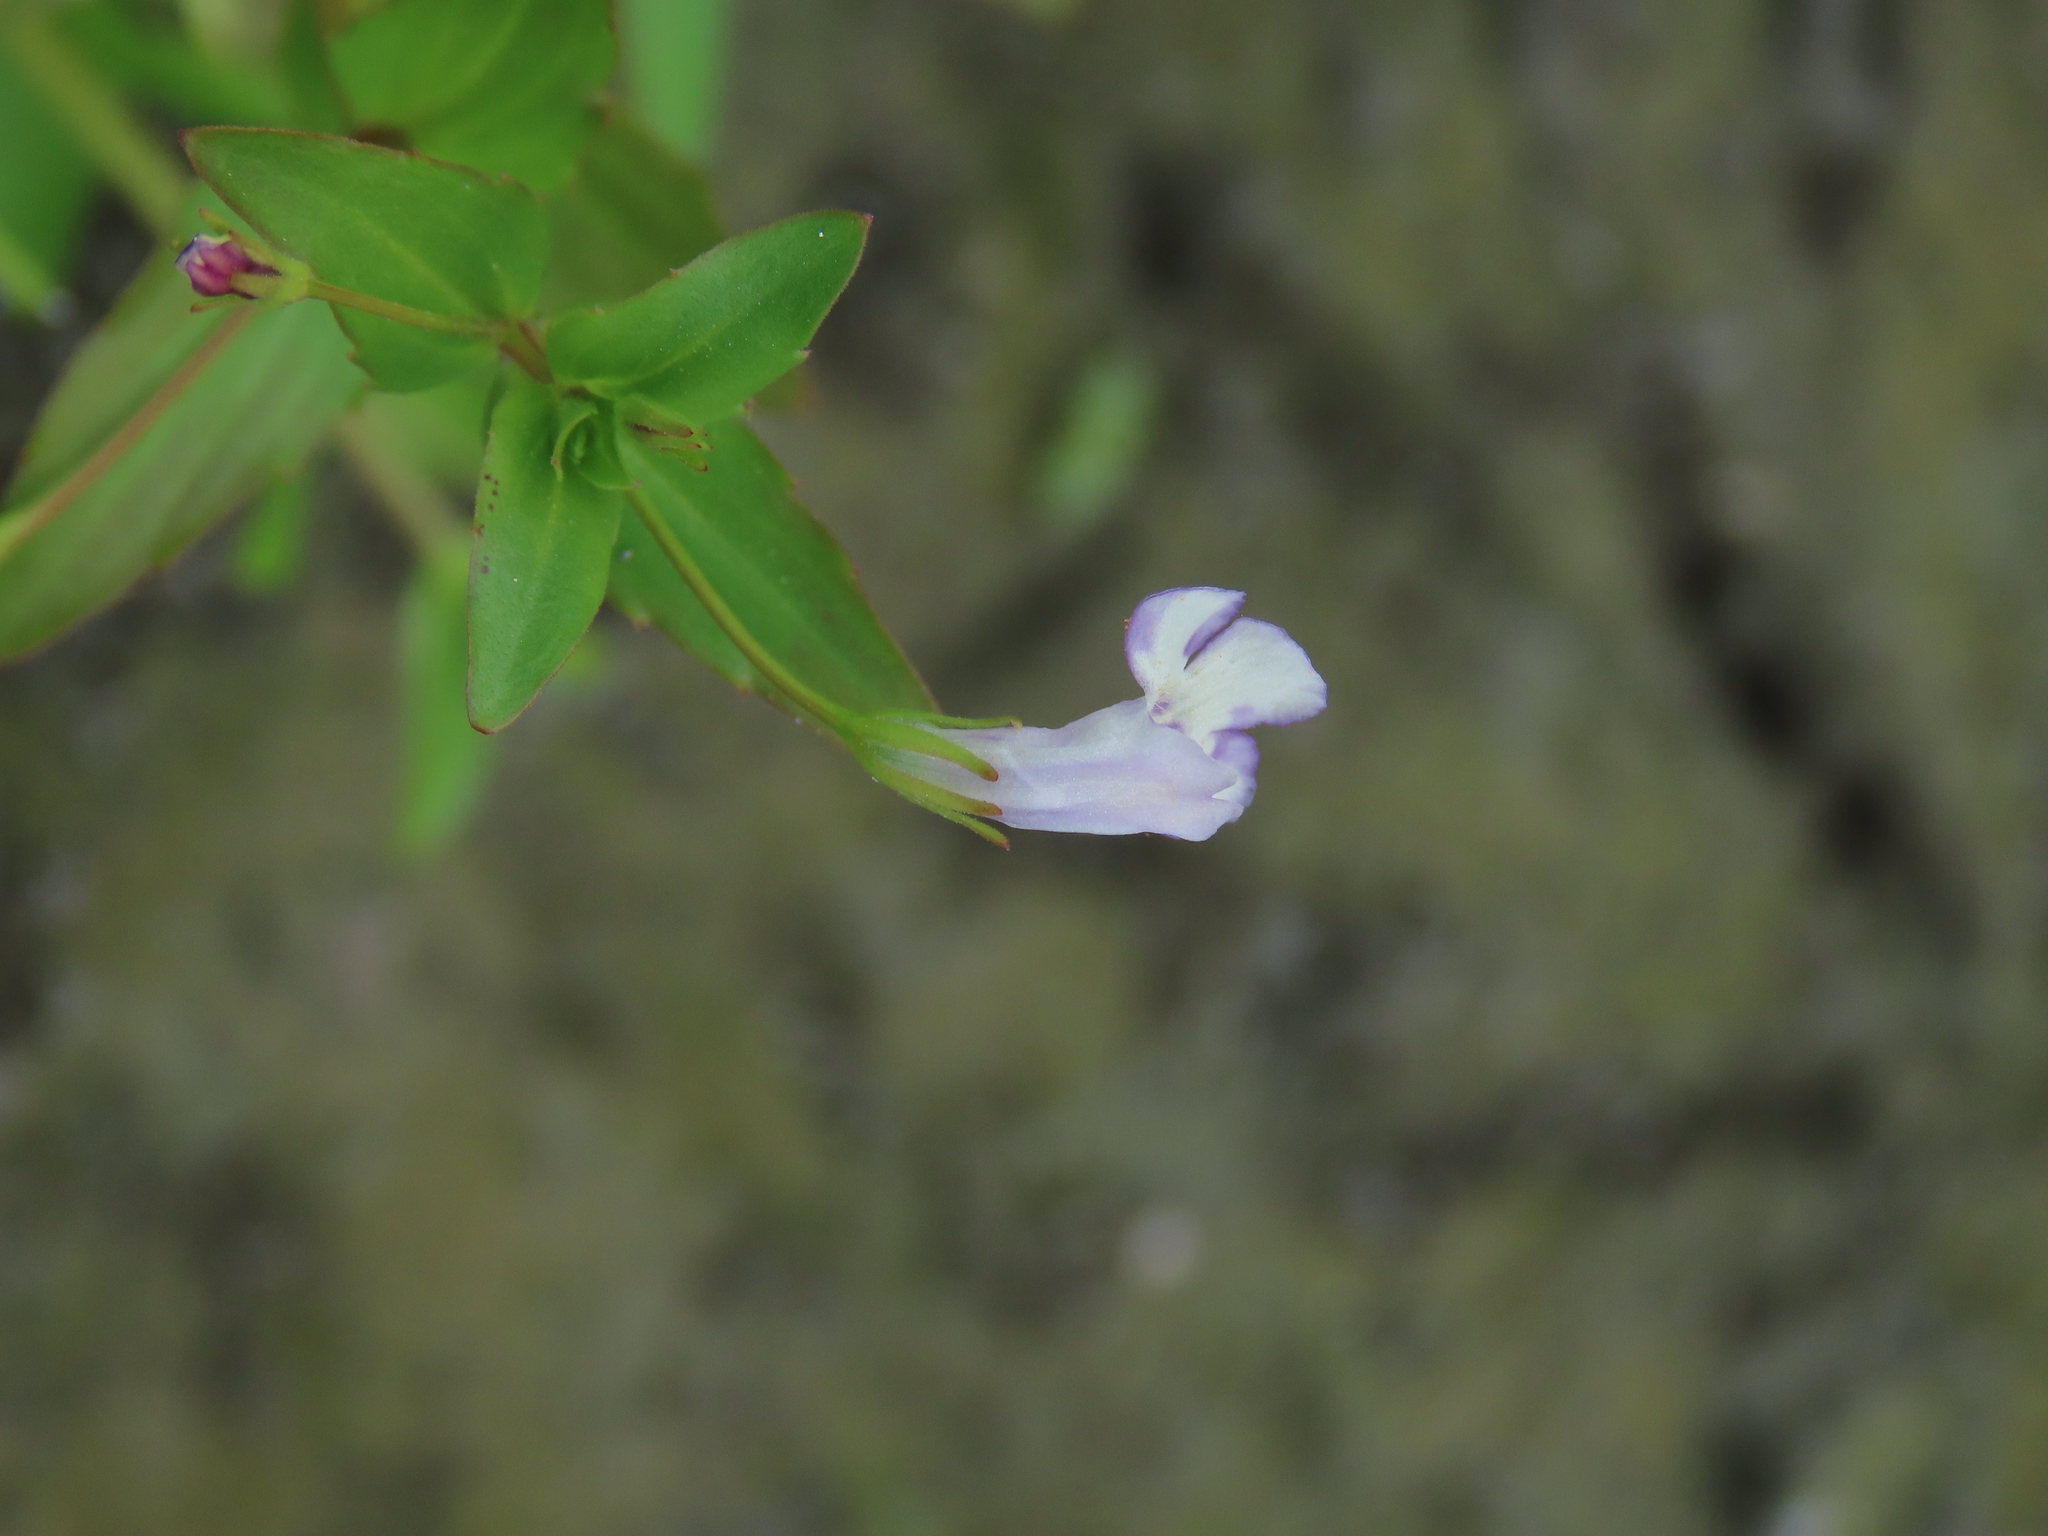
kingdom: Plantae
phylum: Tracheophyta
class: Magnoliopsida
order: Lamiales
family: Linderniaceae
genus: Lindernia
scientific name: Lindernia dubia
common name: Annual false pimpernel
